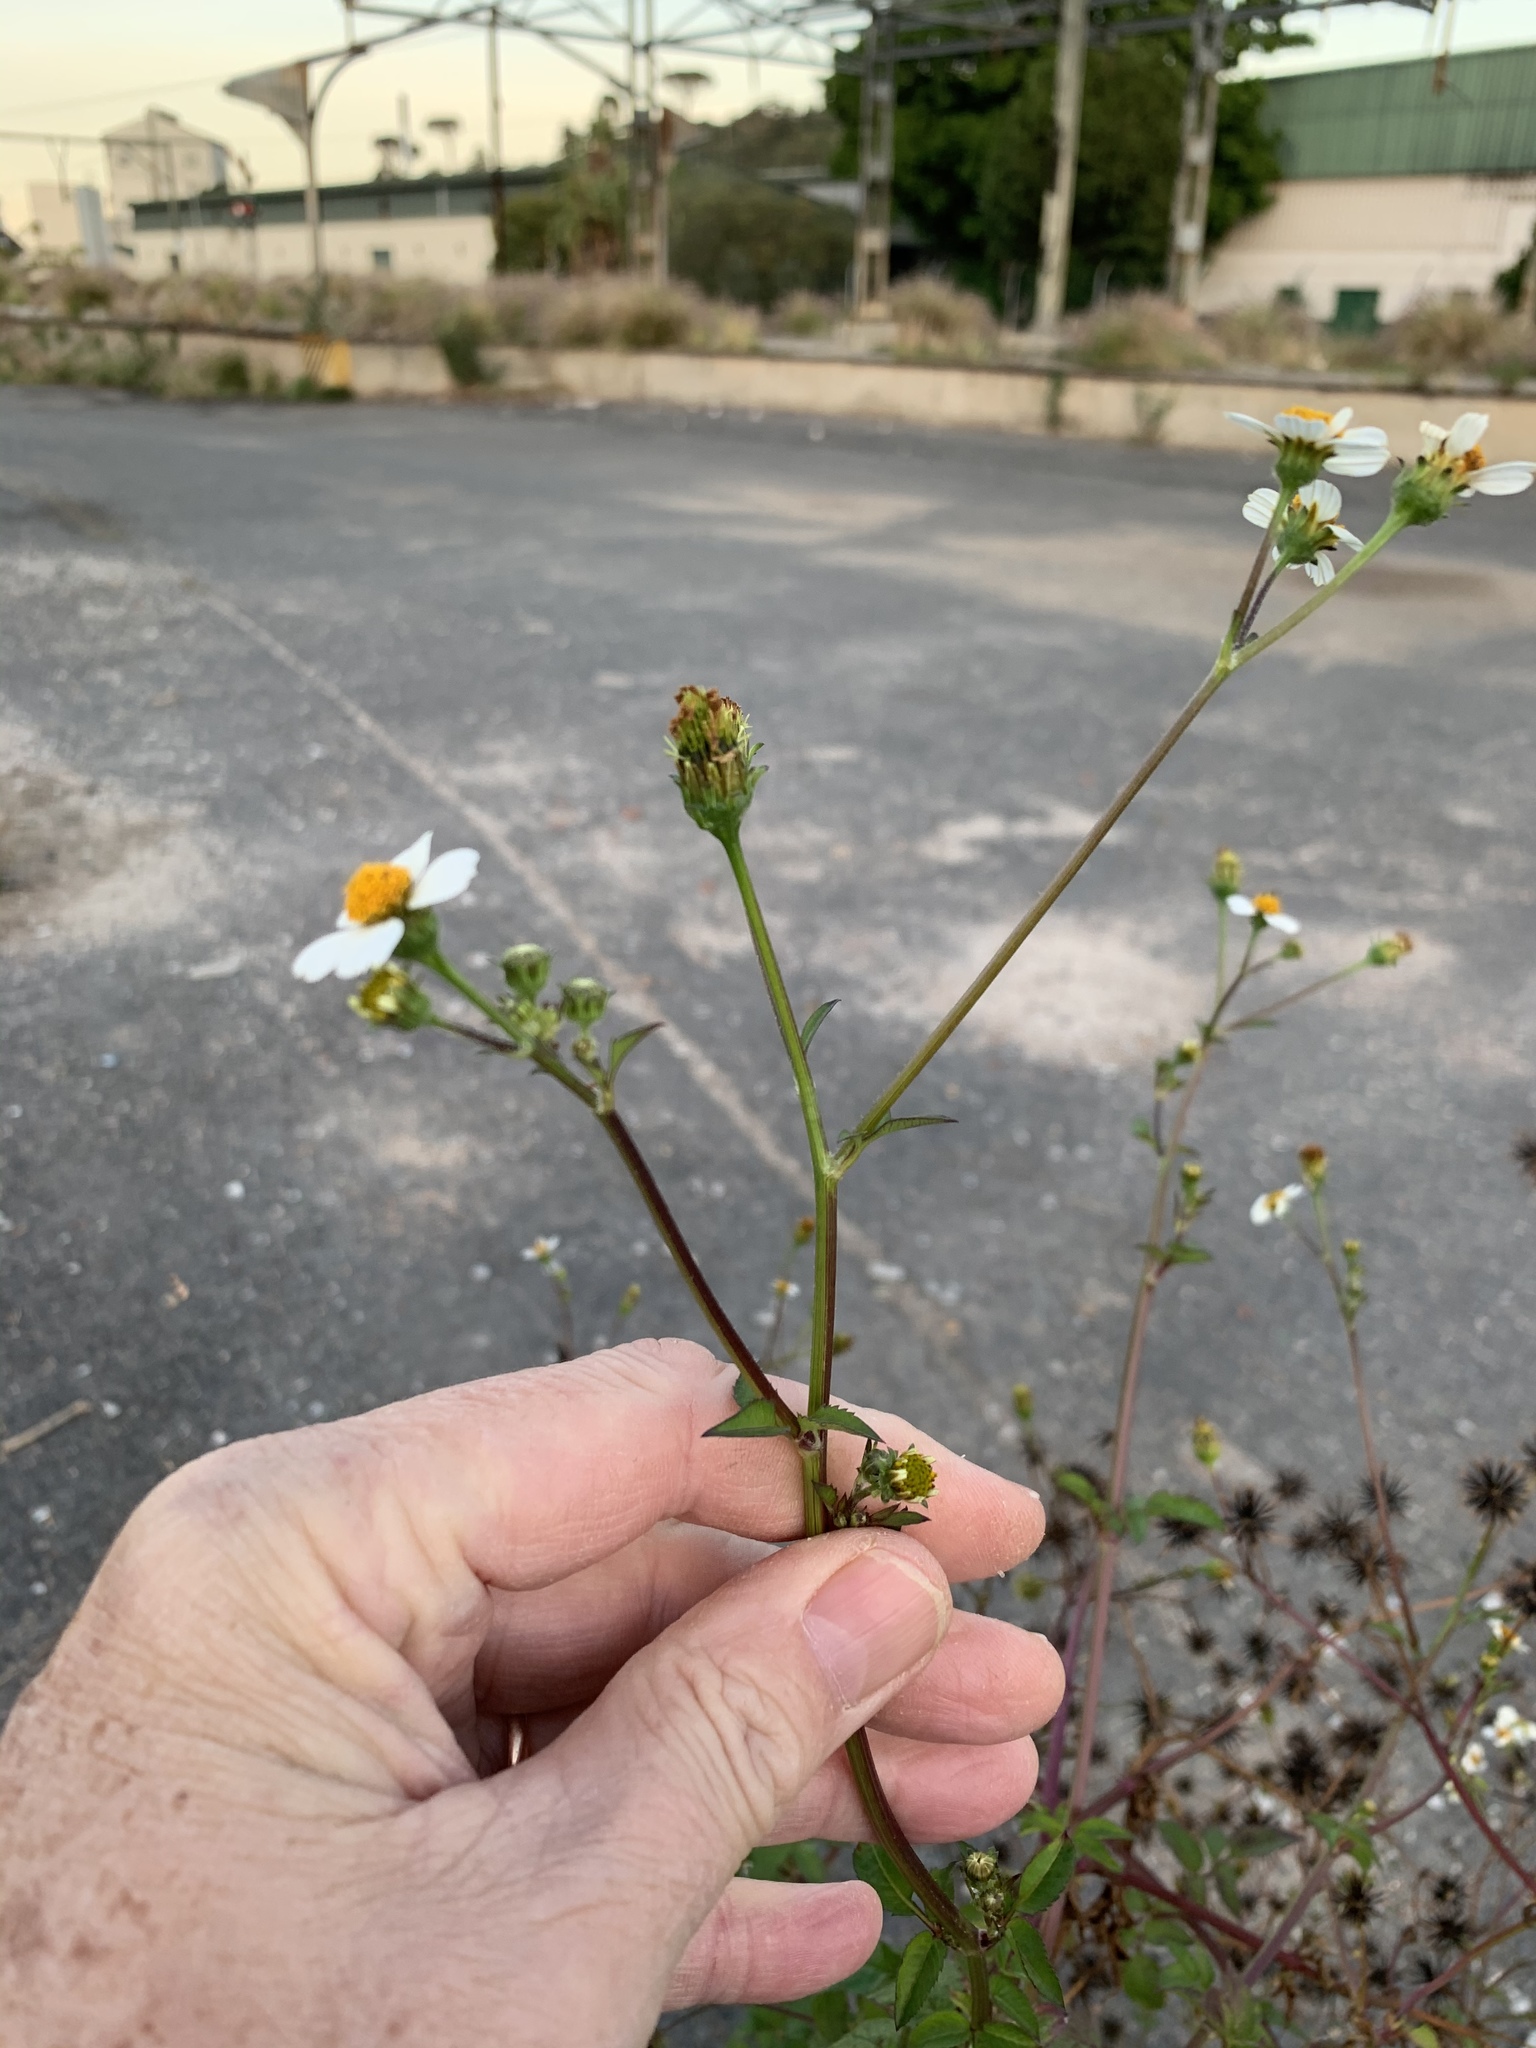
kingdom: Plantae
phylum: Tracheophyta
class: Magnoliopsida
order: Asterales
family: Asteraceae
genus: Bidens
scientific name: Bidens pilosa
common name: Black-jack
